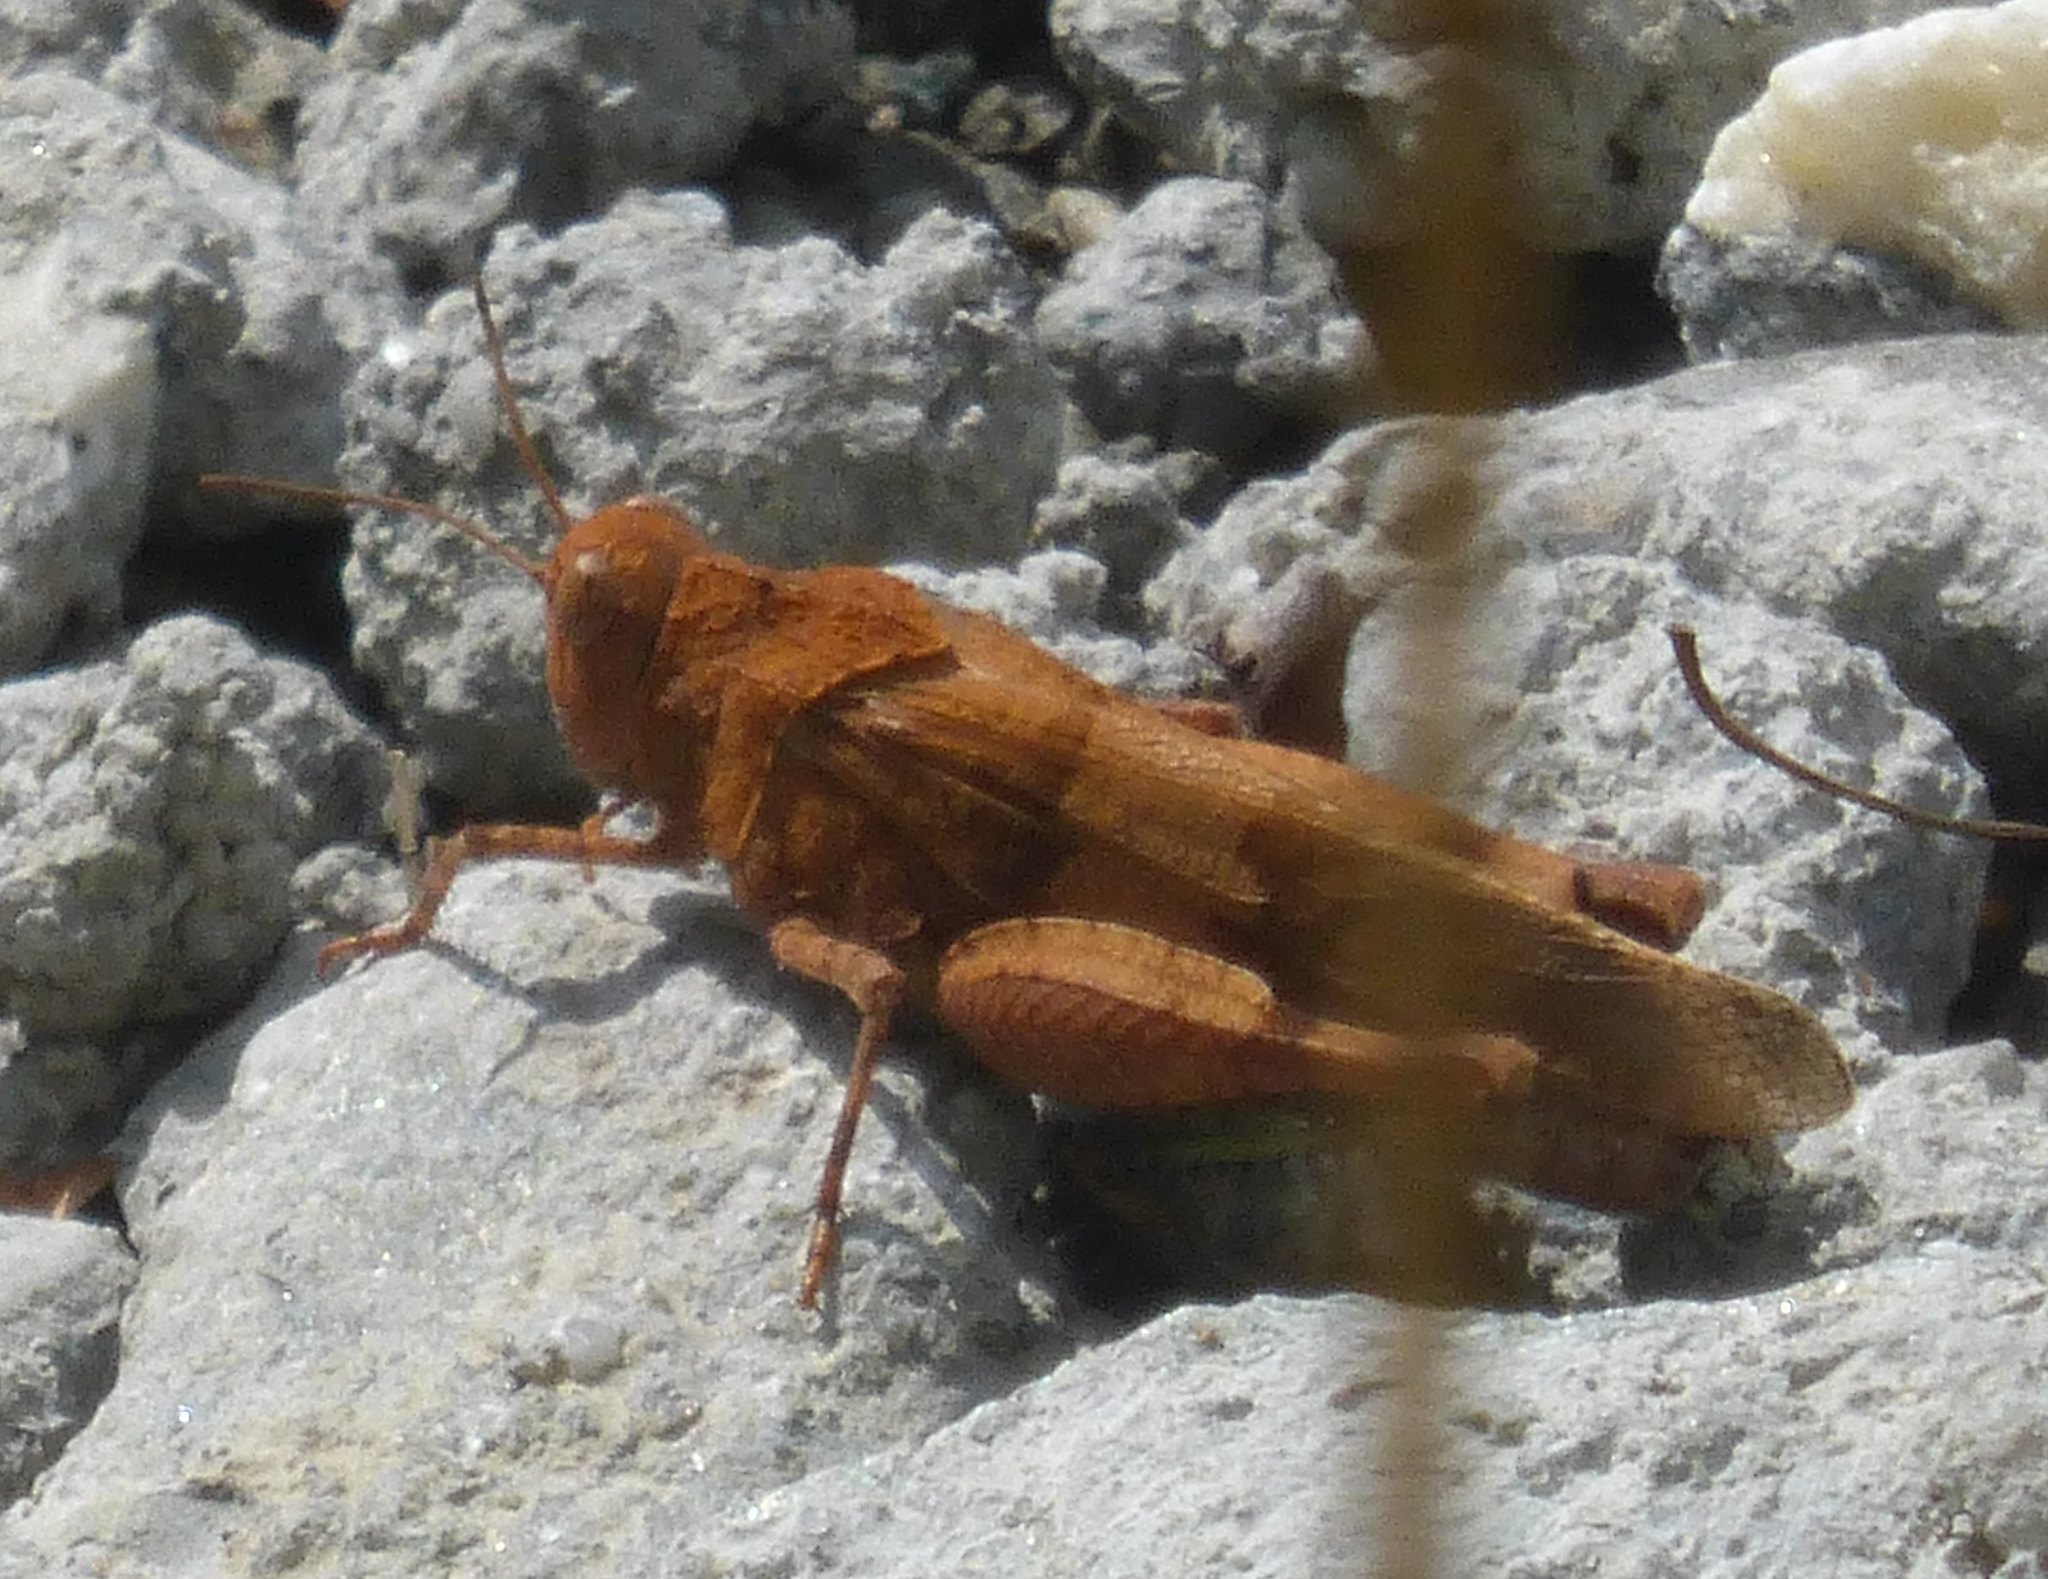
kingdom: Animalia
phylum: Arthropoda
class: Insecta
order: Orthoptera
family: Acrididae
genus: Oedipoda
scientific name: Oedipoda caerulescens
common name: Blue-winged grasshopper
